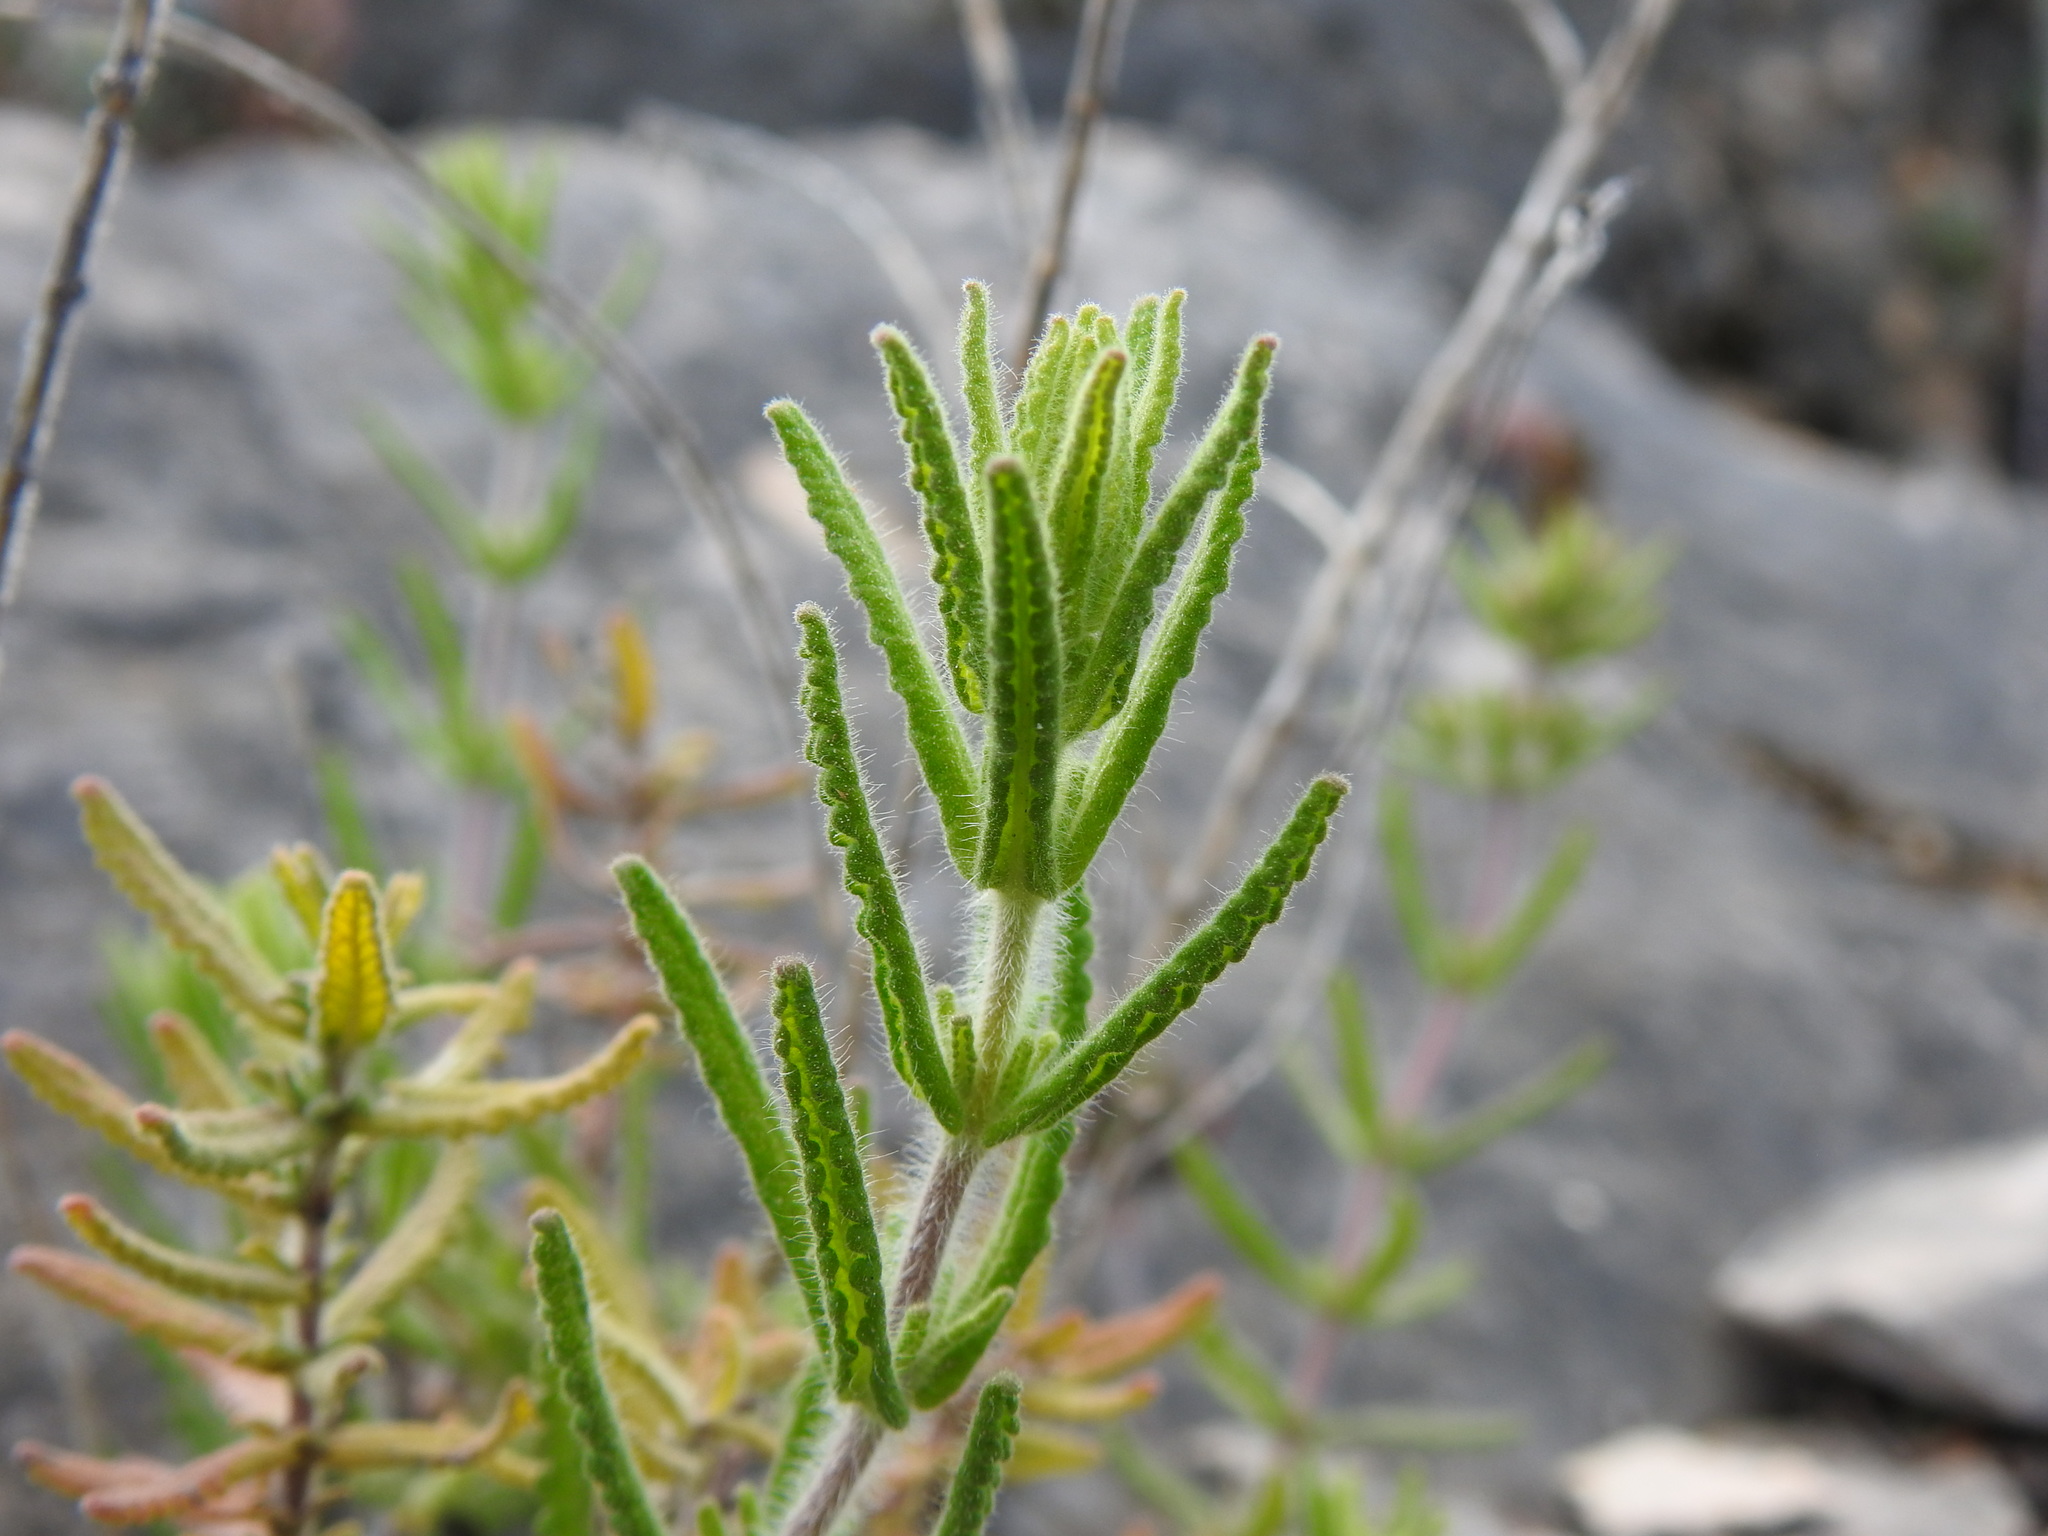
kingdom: Plantae
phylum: Tracheophyta
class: Magnoliopsida
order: Lamiales
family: Lamiaceae
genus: Teucrium
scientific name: Teucrium haenseleri
